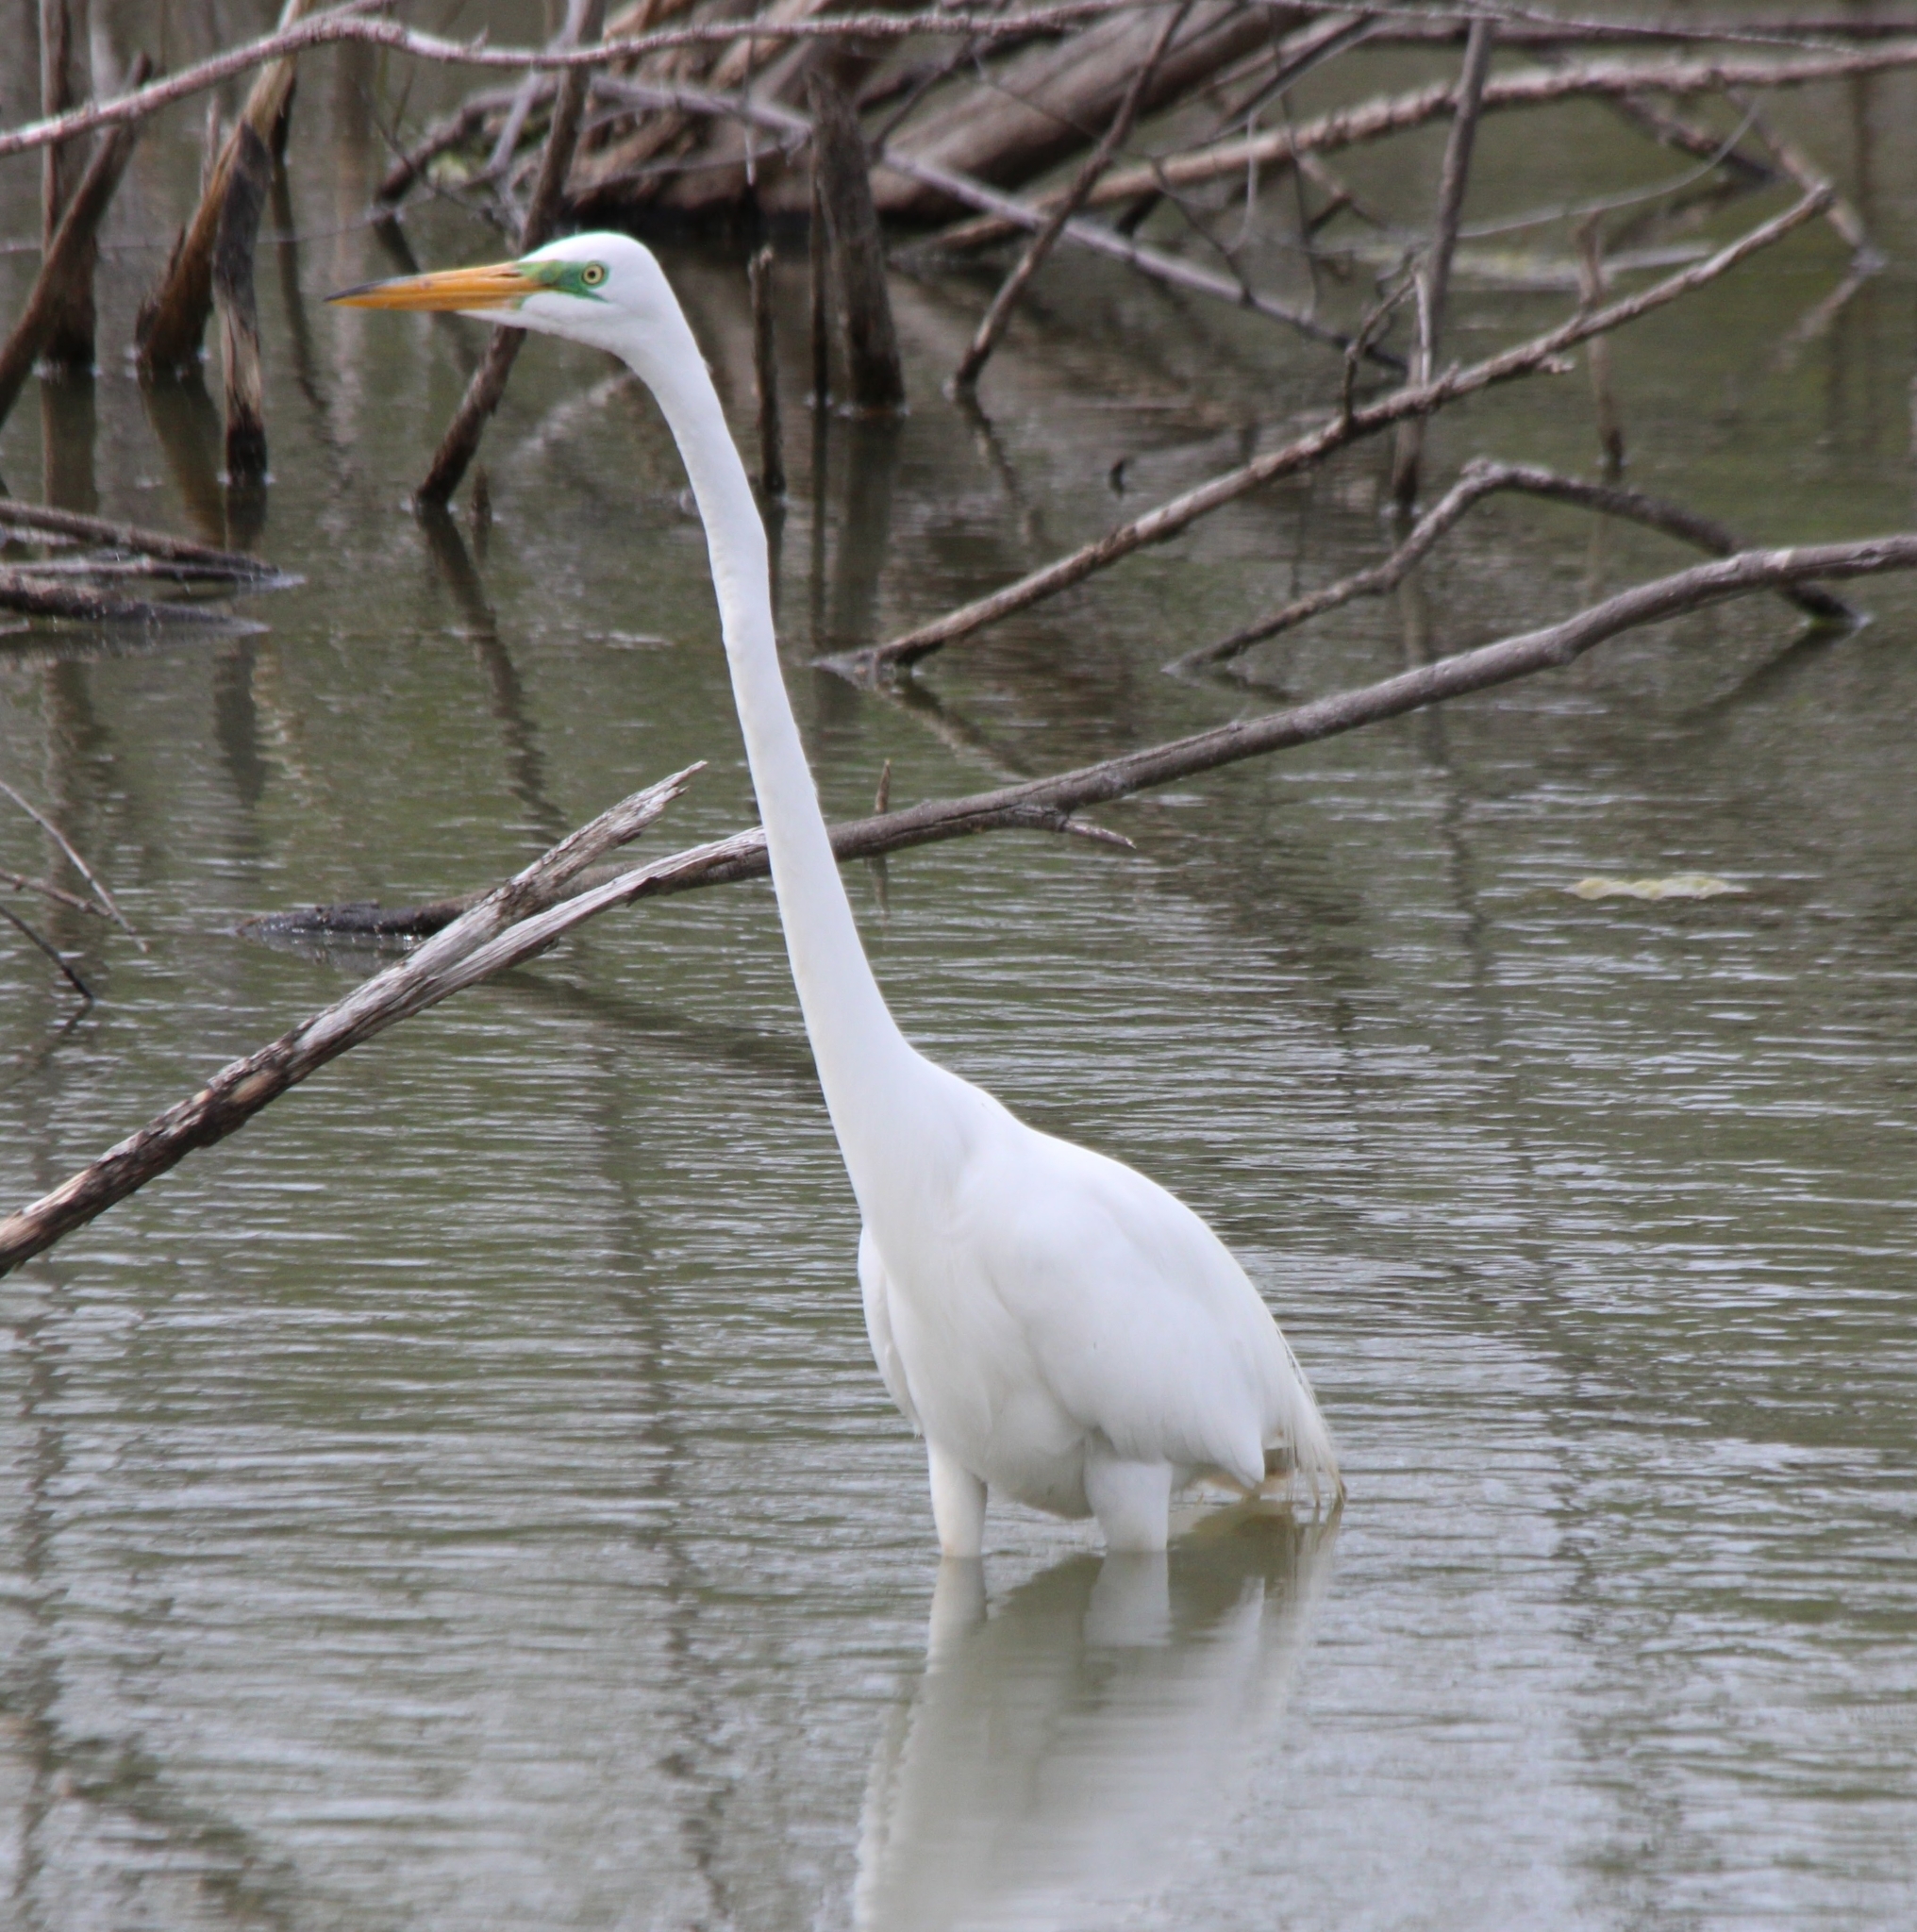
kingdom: Animalia
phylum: Chordata
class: Aves
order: Pelecaniformes
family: Ardeidae
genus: Ardea
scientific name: Ardea alba
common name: Great egret
